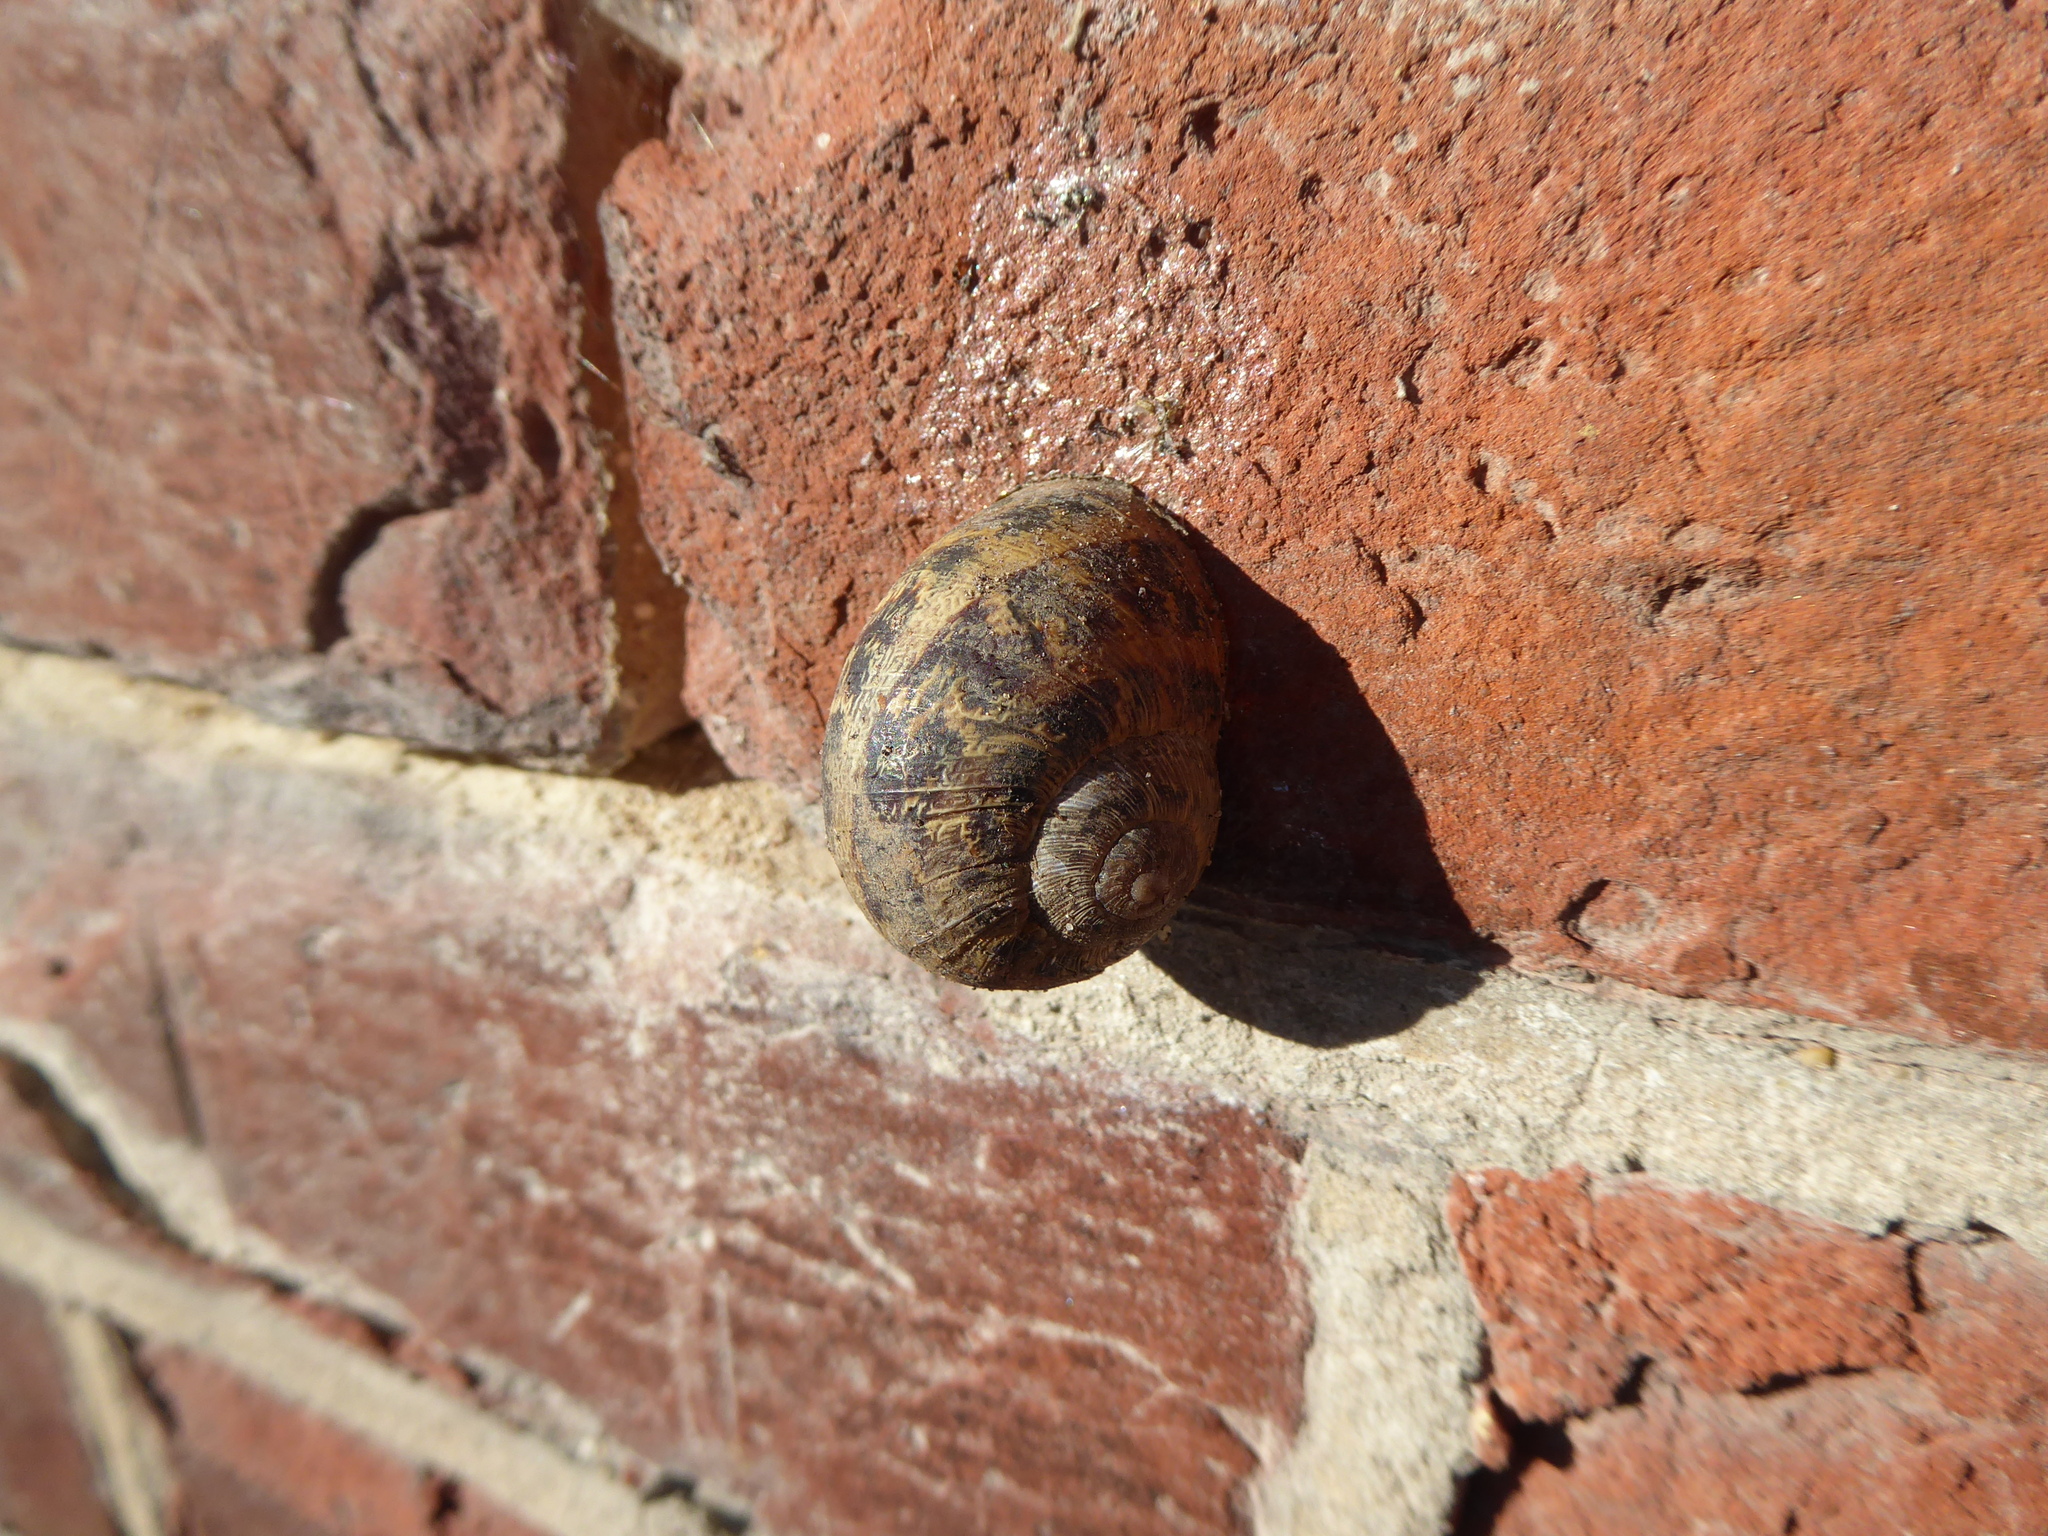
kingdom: Animalia
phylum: Mollusca
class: Gastropoda
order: Stylommatophora
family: Helicidae
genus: Cornu
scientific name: Cornu aspersum
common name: Brown garden snail
